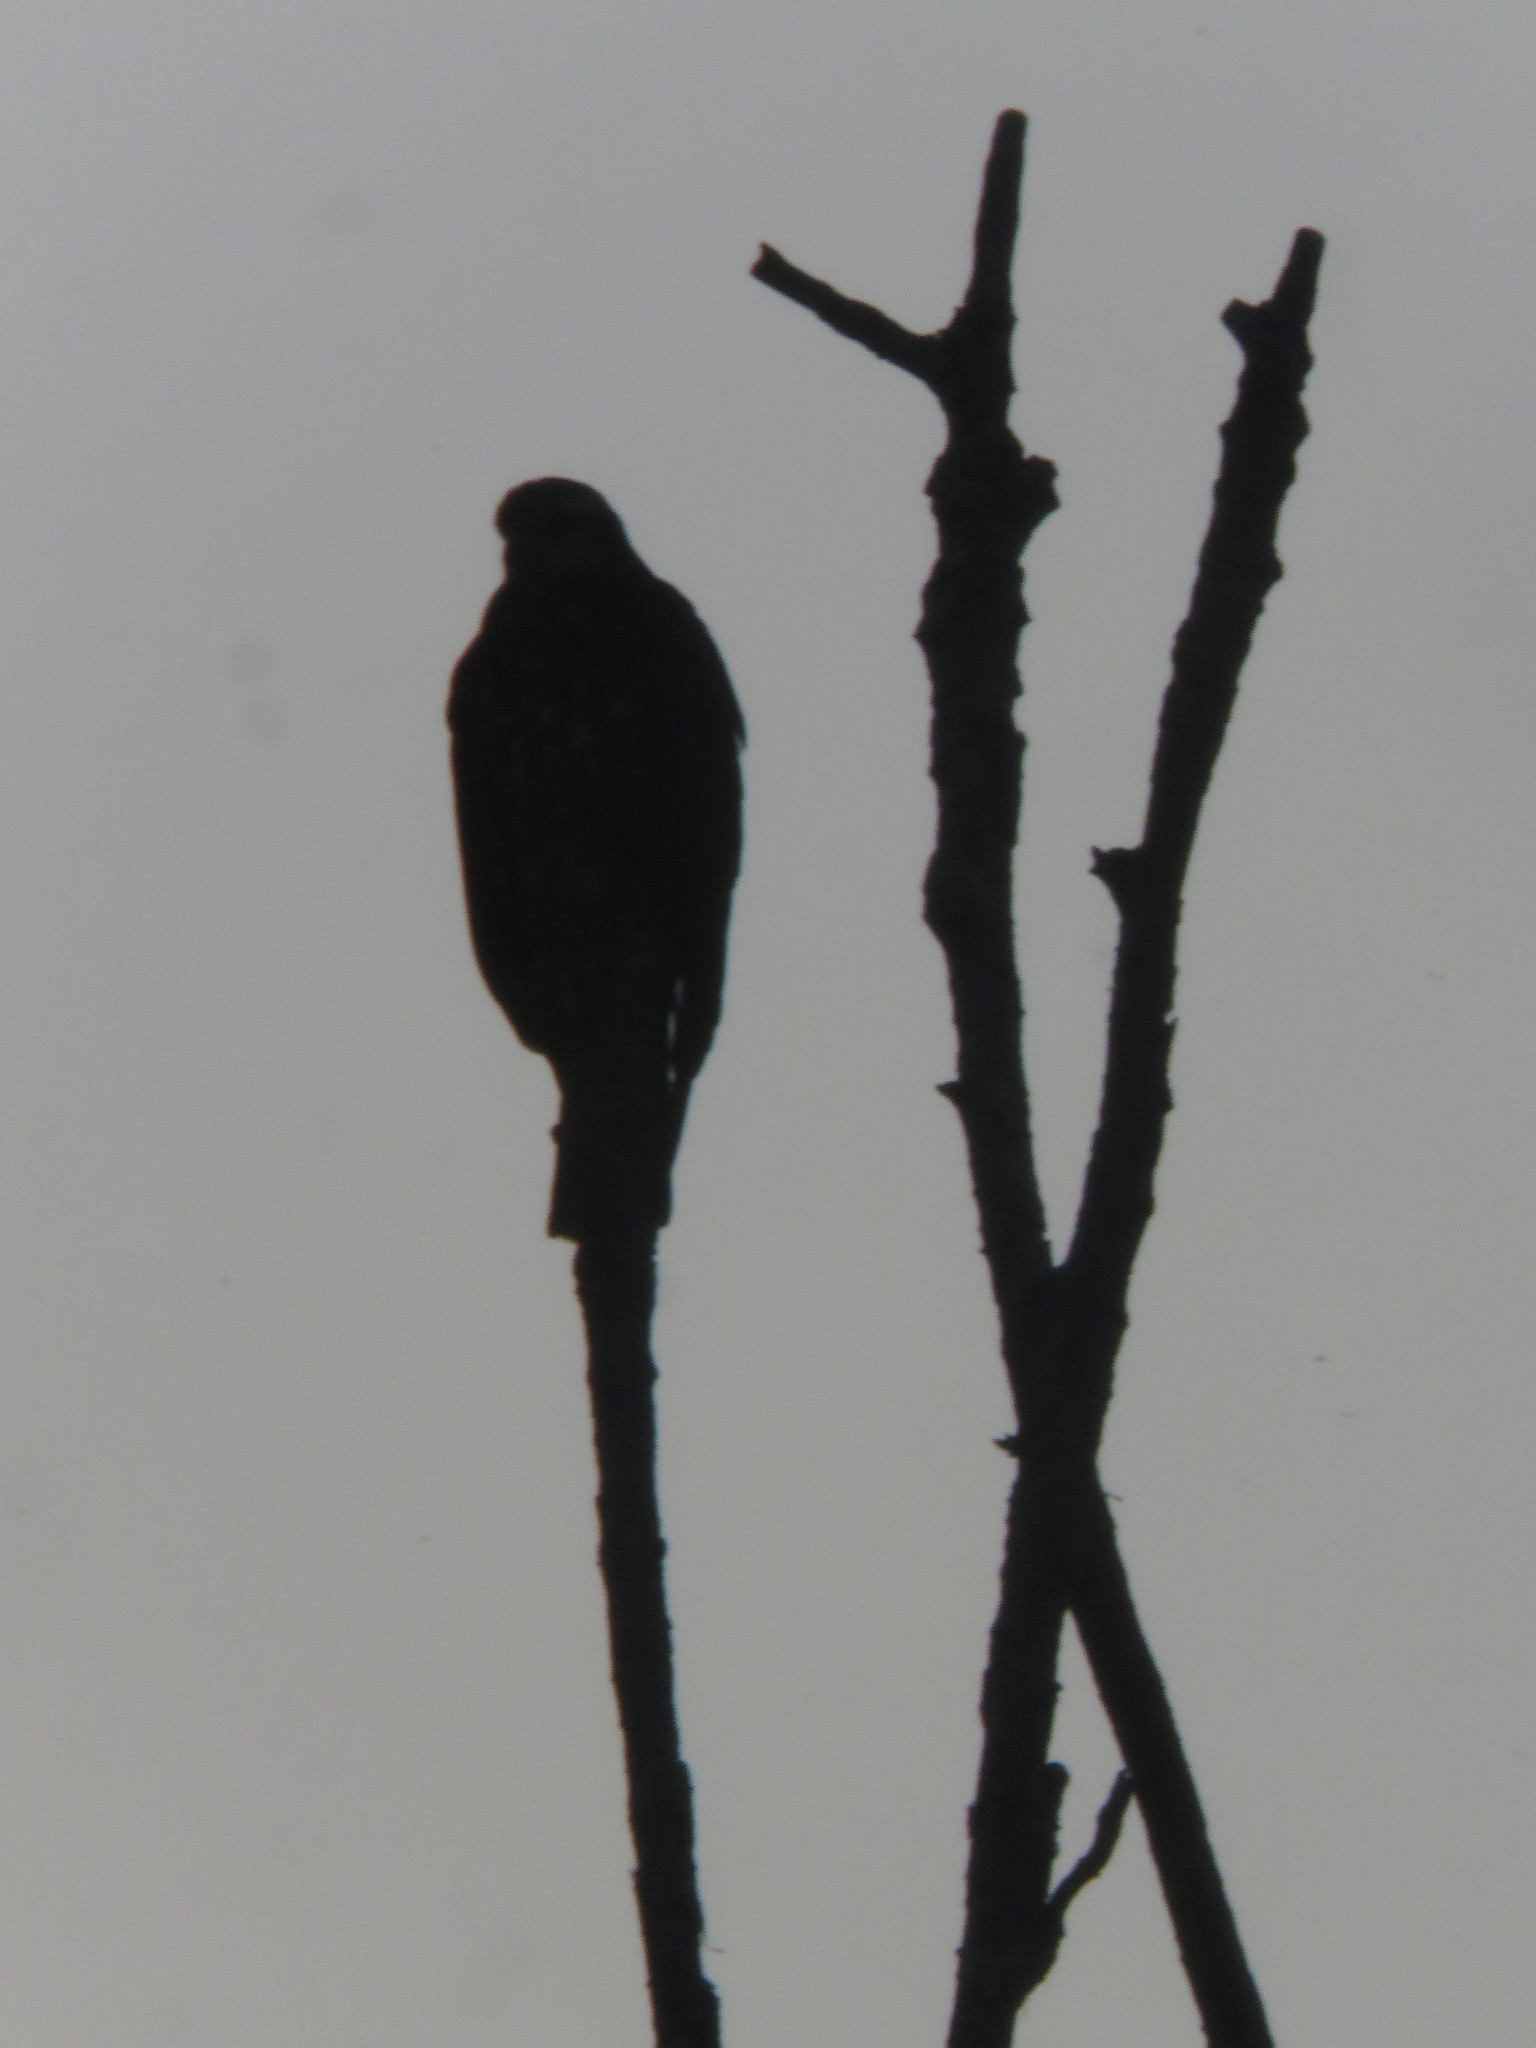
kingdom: Animalia
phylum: Chordata
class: Aves
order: Accipitriformes
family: Accipitridae
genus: Rostrhamus
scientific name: Rostrhamus sociabilis
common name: Snail kite
